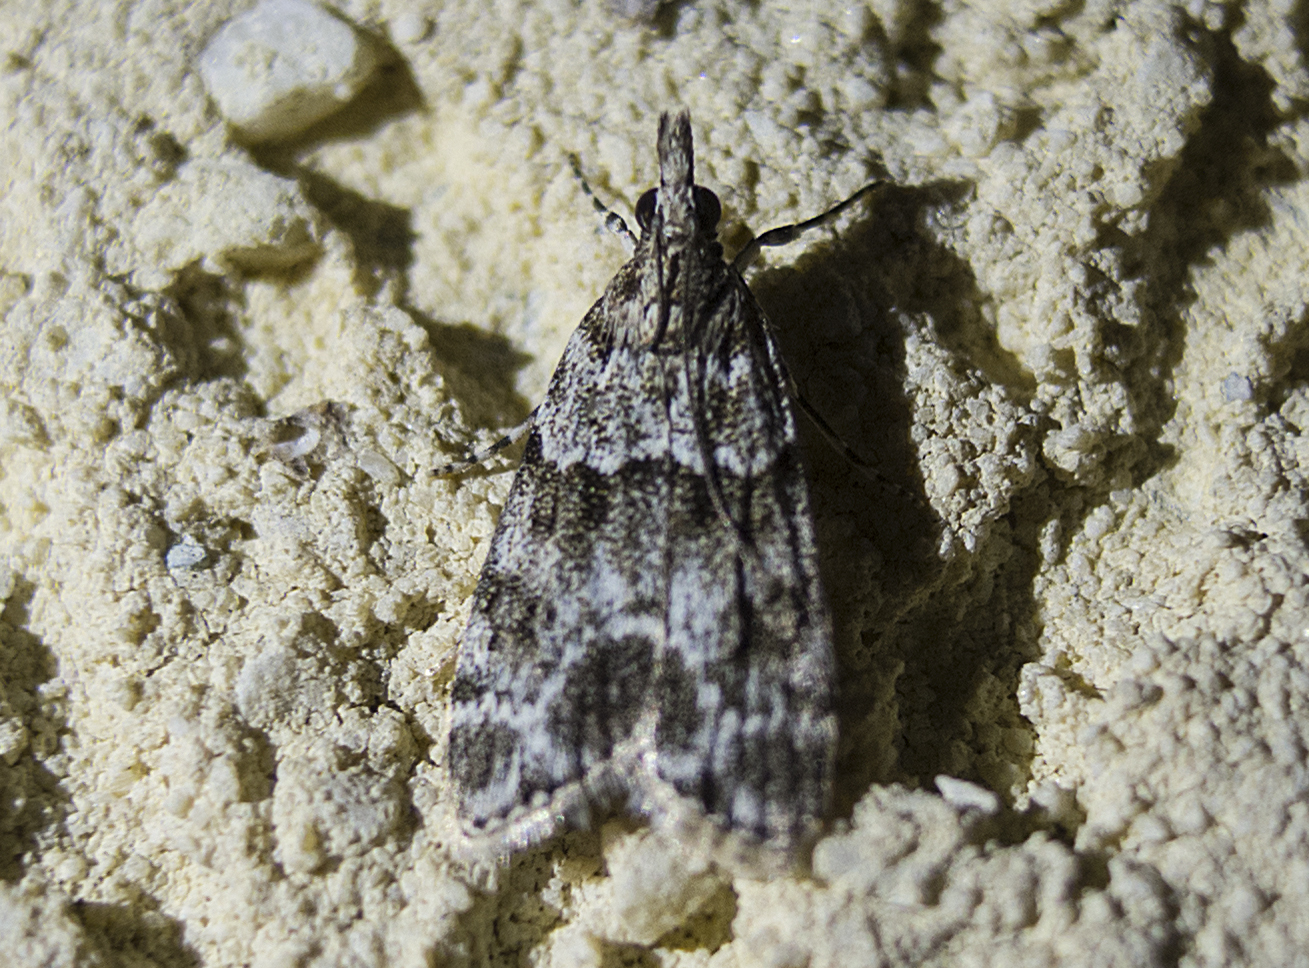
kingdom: Animalia
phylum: Arthropoda
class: Insecta
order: Lepidoptera
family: Crambidae
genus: Eudonia
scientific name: Eudonia mercurella
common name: Small grey
